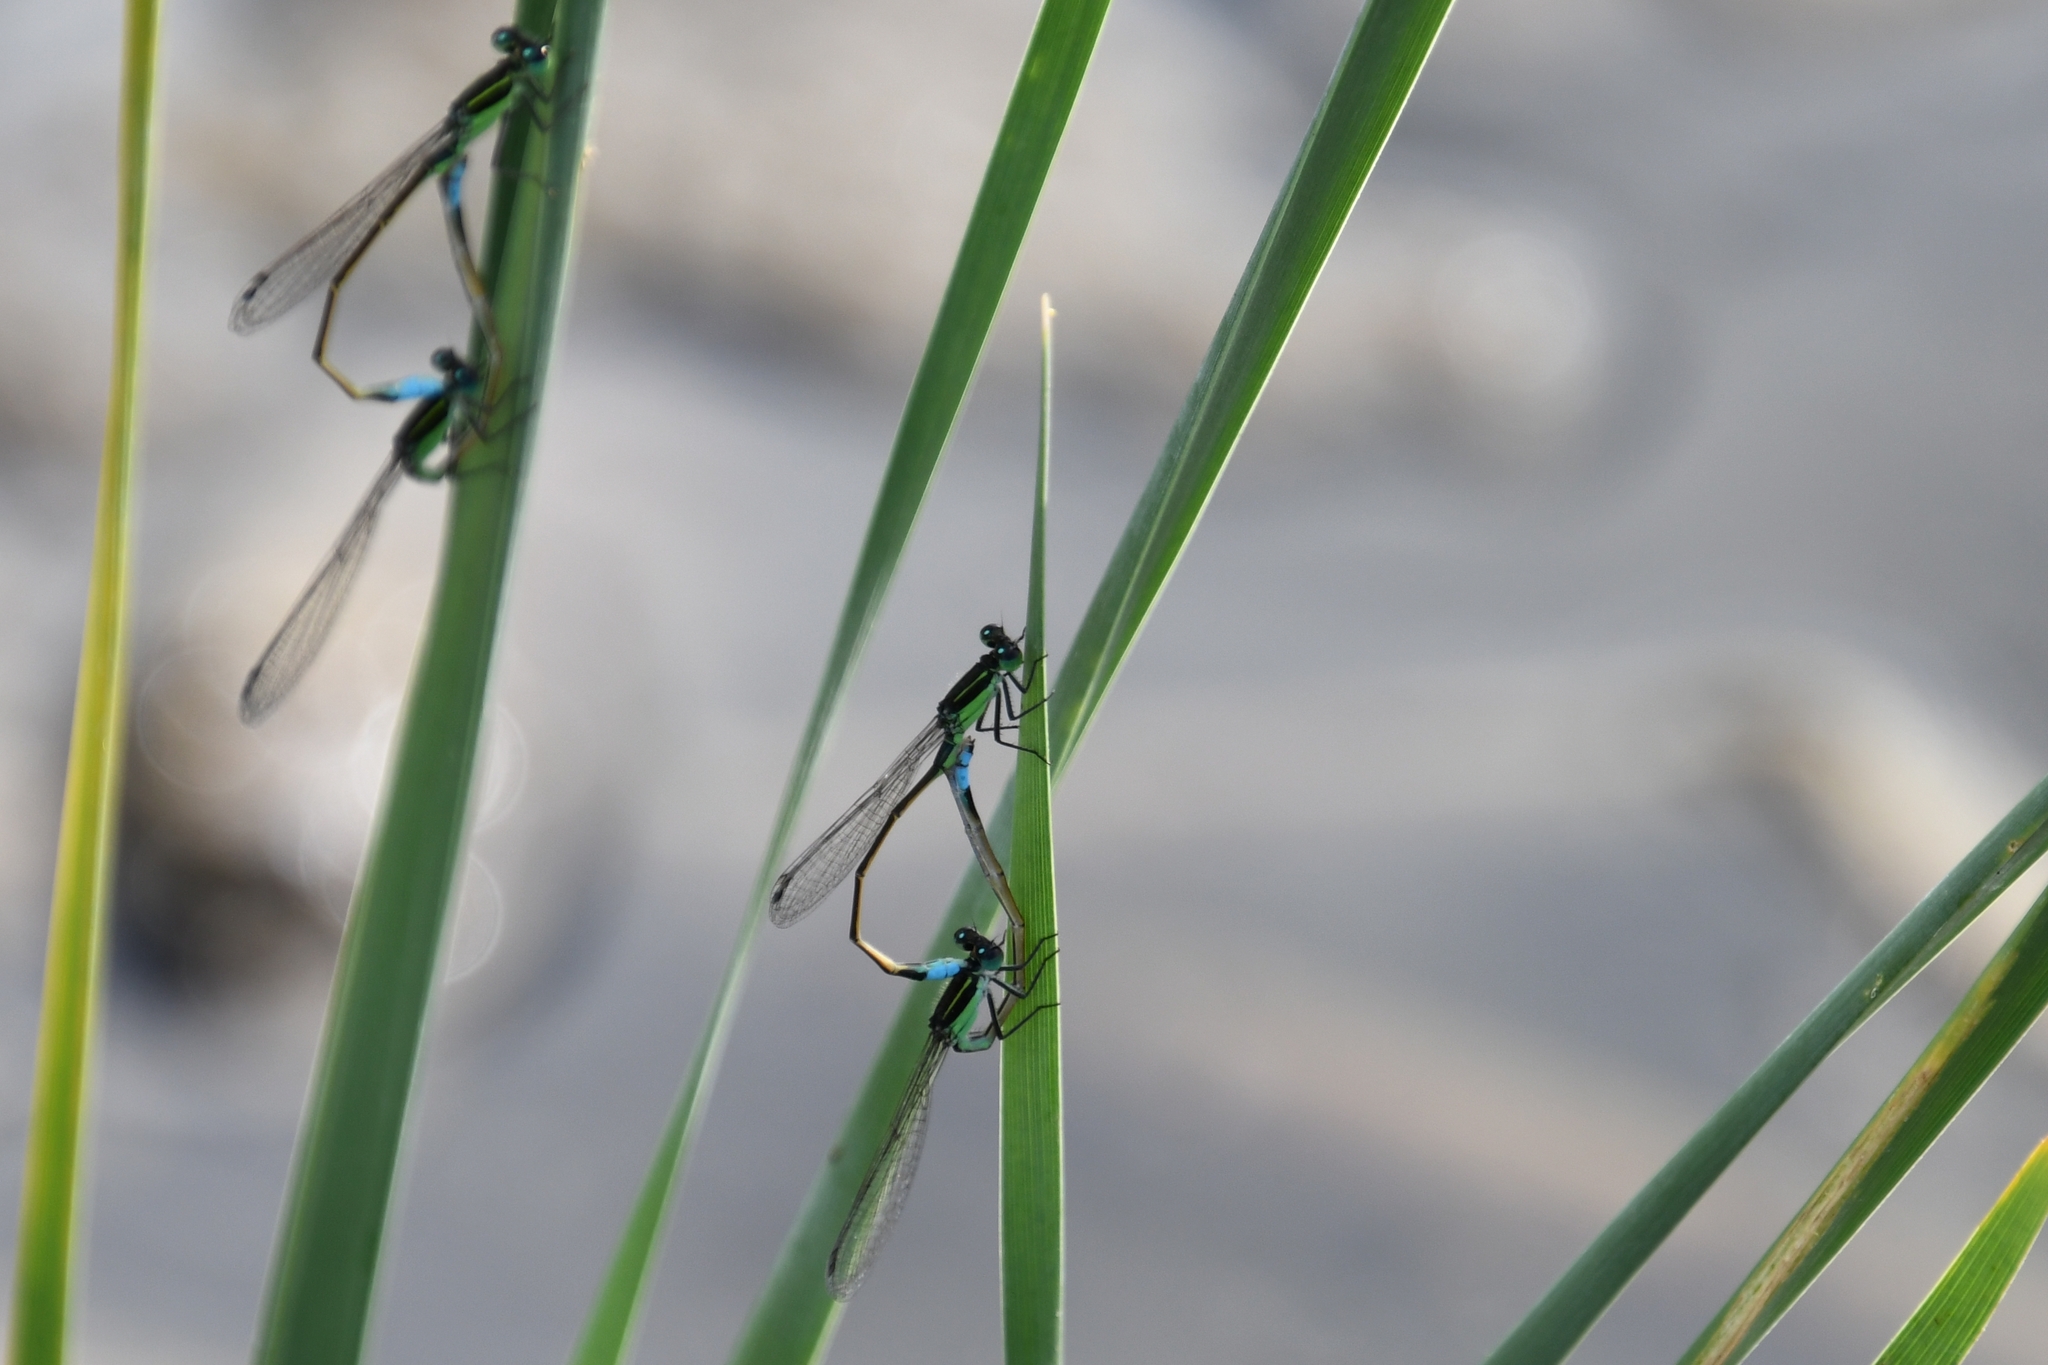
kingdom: Animalia
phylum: Arthropoda
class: Insecta
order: Odonata
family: Coenagrionidae
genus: Ischnura
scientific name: Ischnura ramburii
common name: Rambur's forktail
